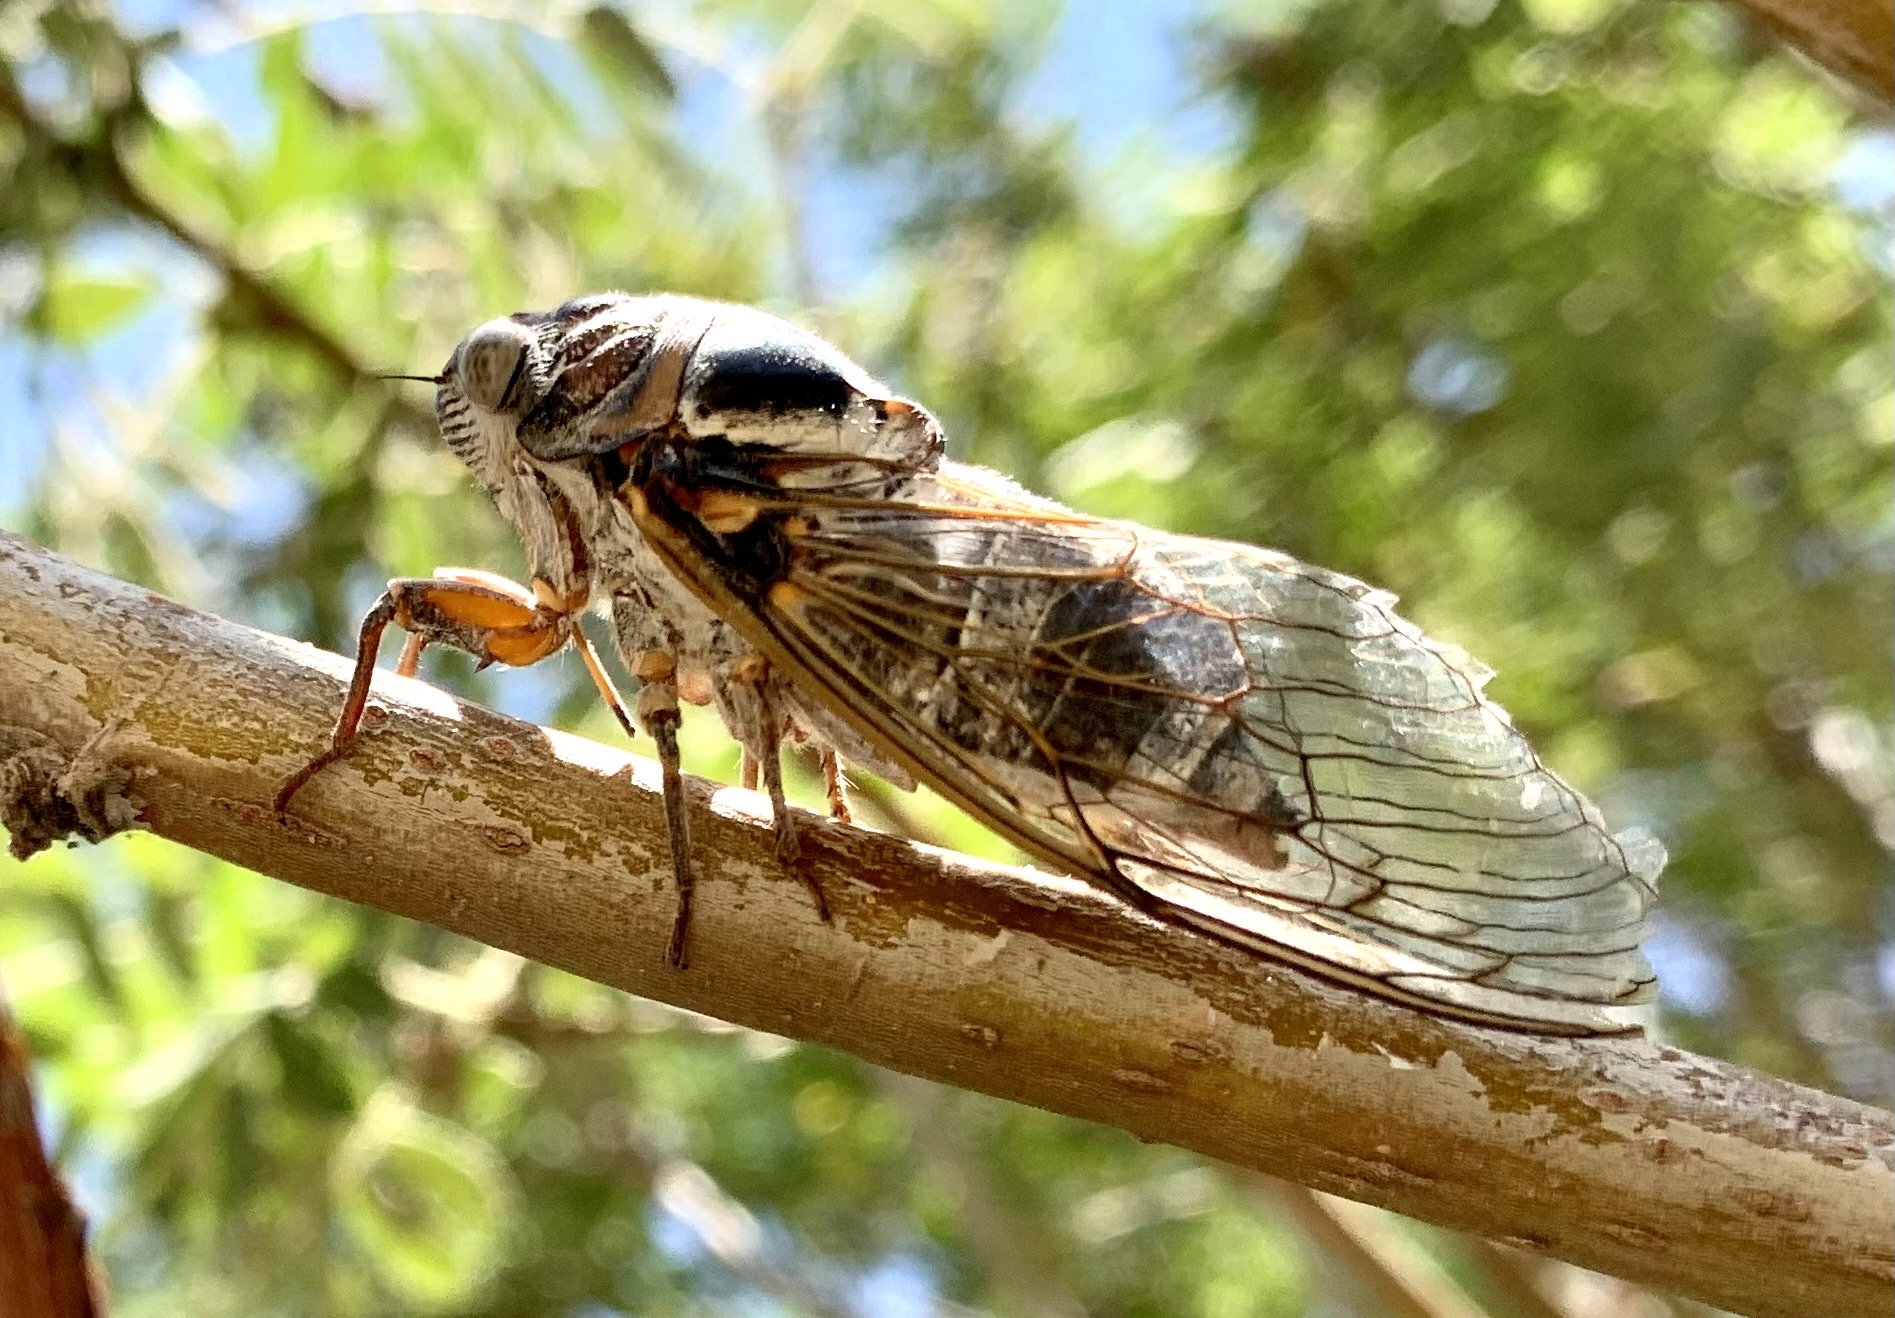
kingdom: Animalia
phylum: Arthropoda
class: Insecta
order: Hemiptera
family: Cicadidae
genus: Lyristes
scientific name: Lyristes plebejus
